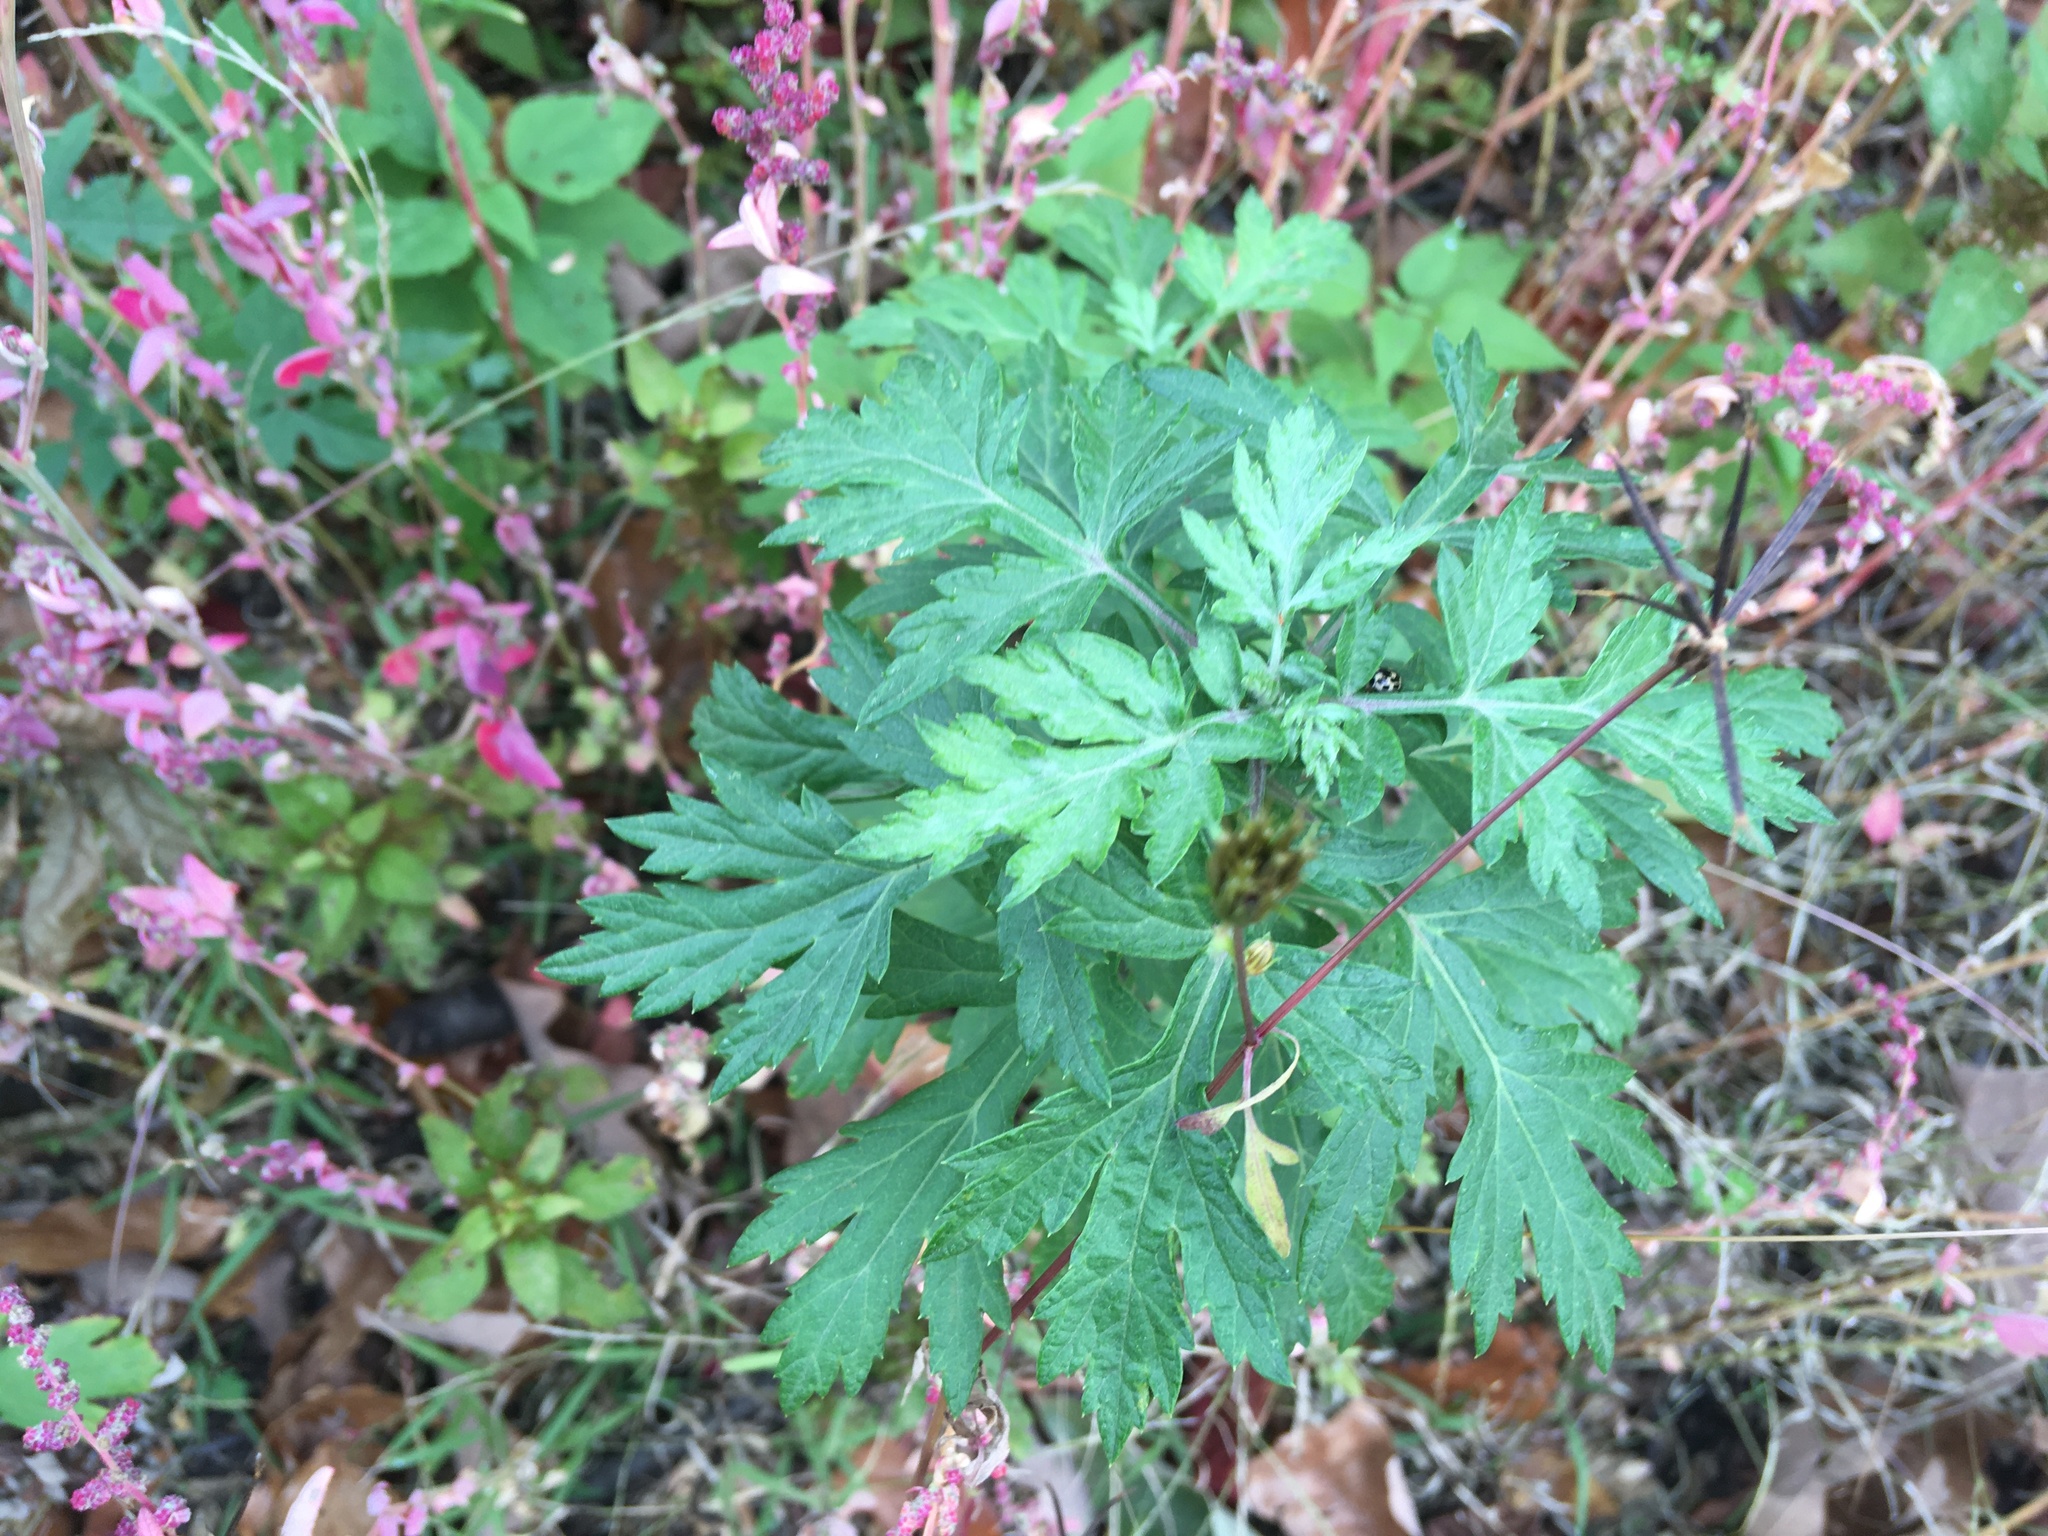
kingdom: Plantae
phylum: Tracheophyta
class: Magnoliopsida
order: Asterales
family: Asteraceae
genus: Artemisia
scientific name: Artemisia vulgaris
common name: Mugwort
